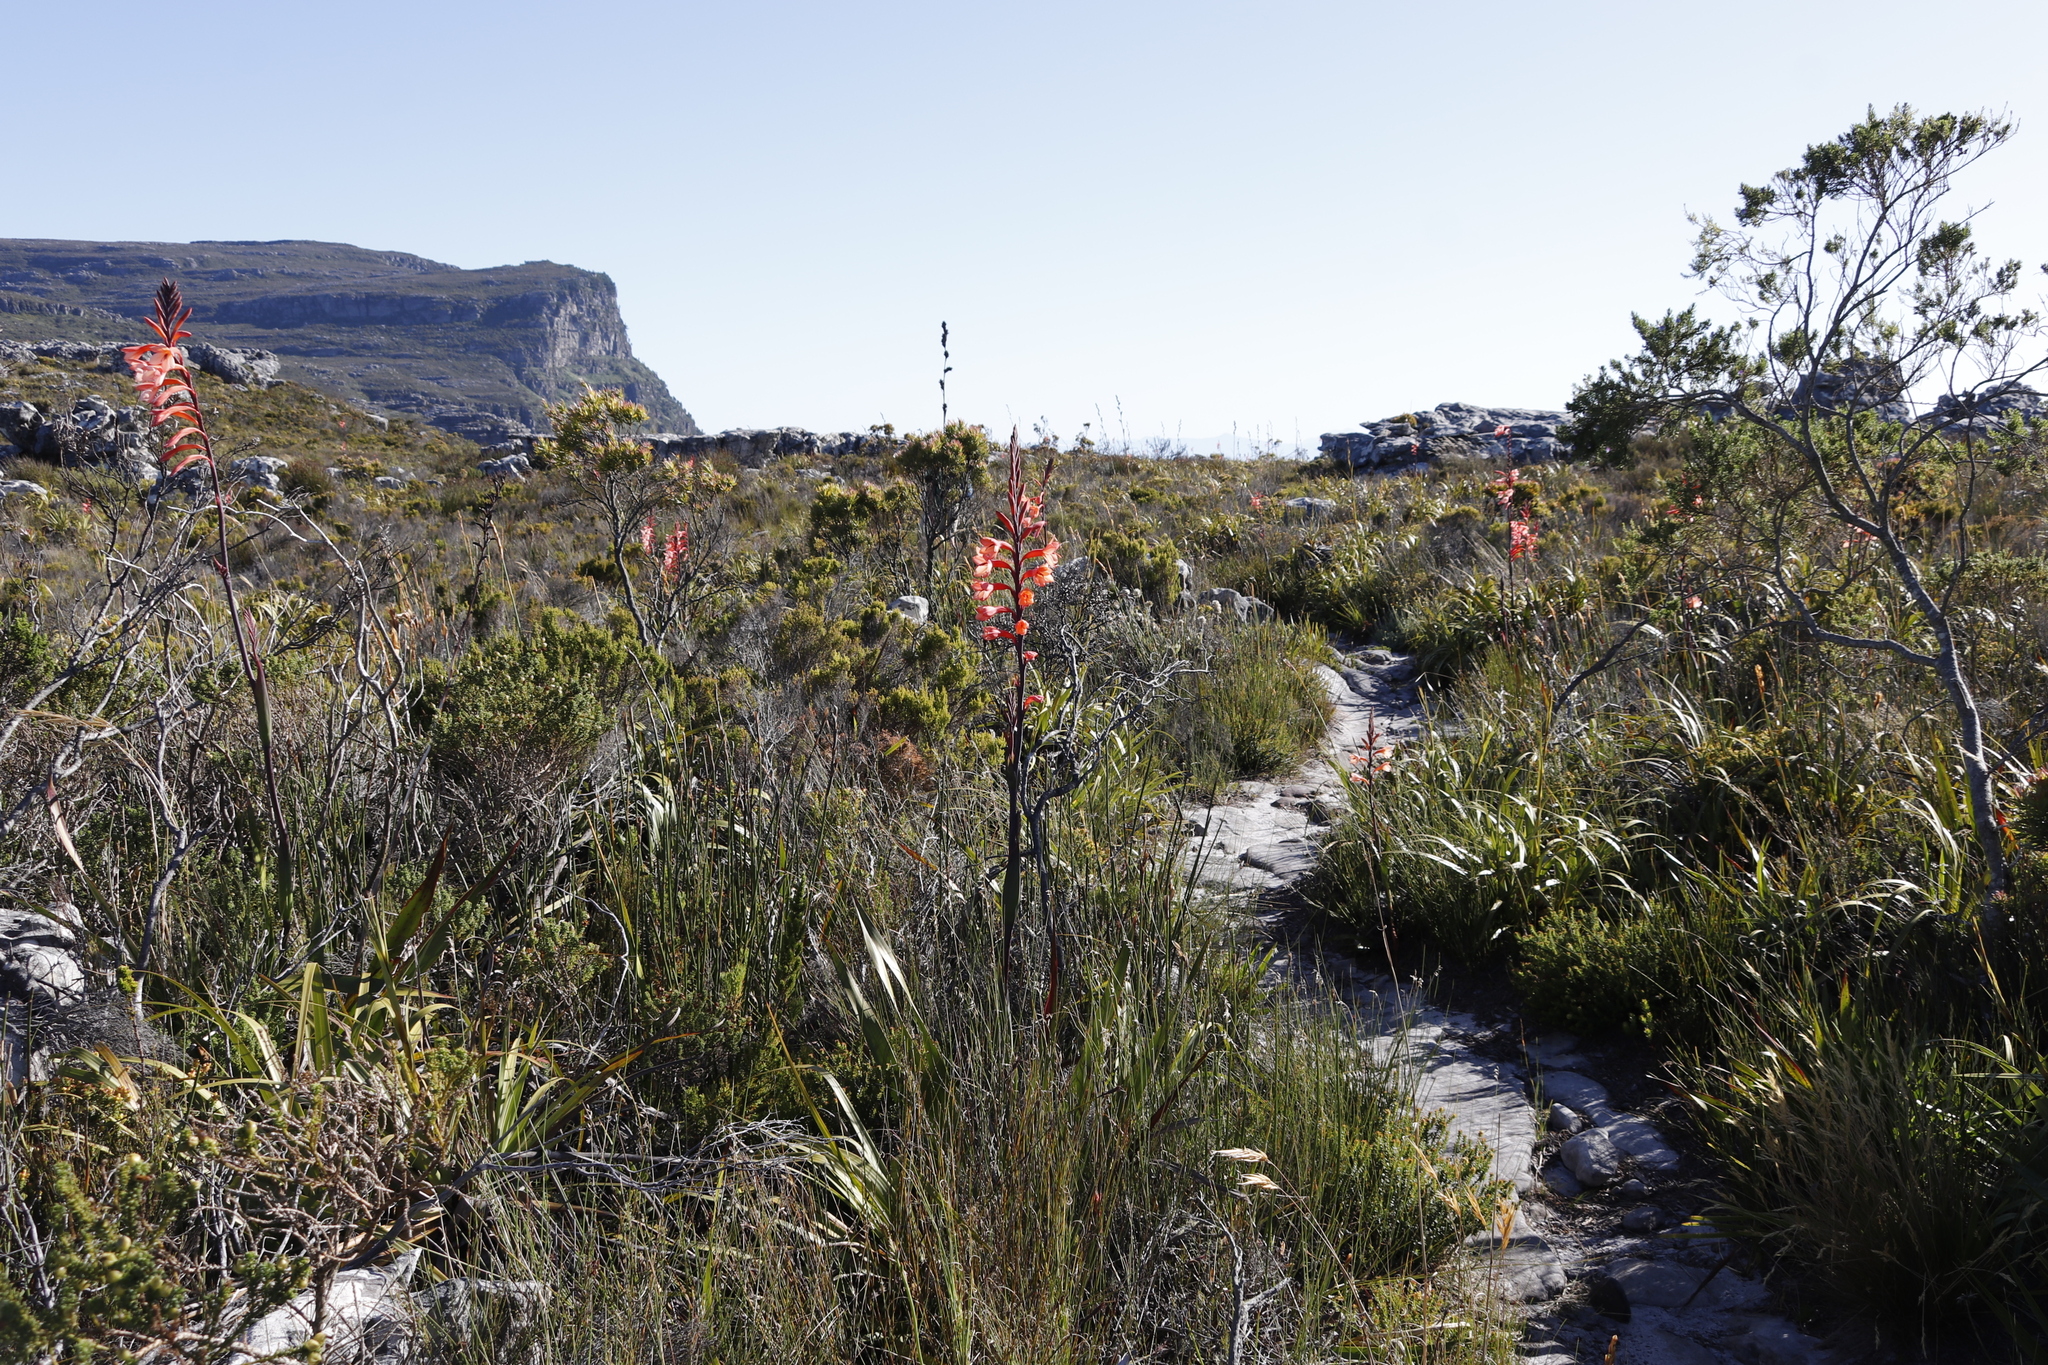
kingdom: Plantae
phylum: Tracheophyta
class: Liliopsida
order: Asparagales
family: Iridaceae
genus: Watsonia
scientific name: Watsonia tabularis
